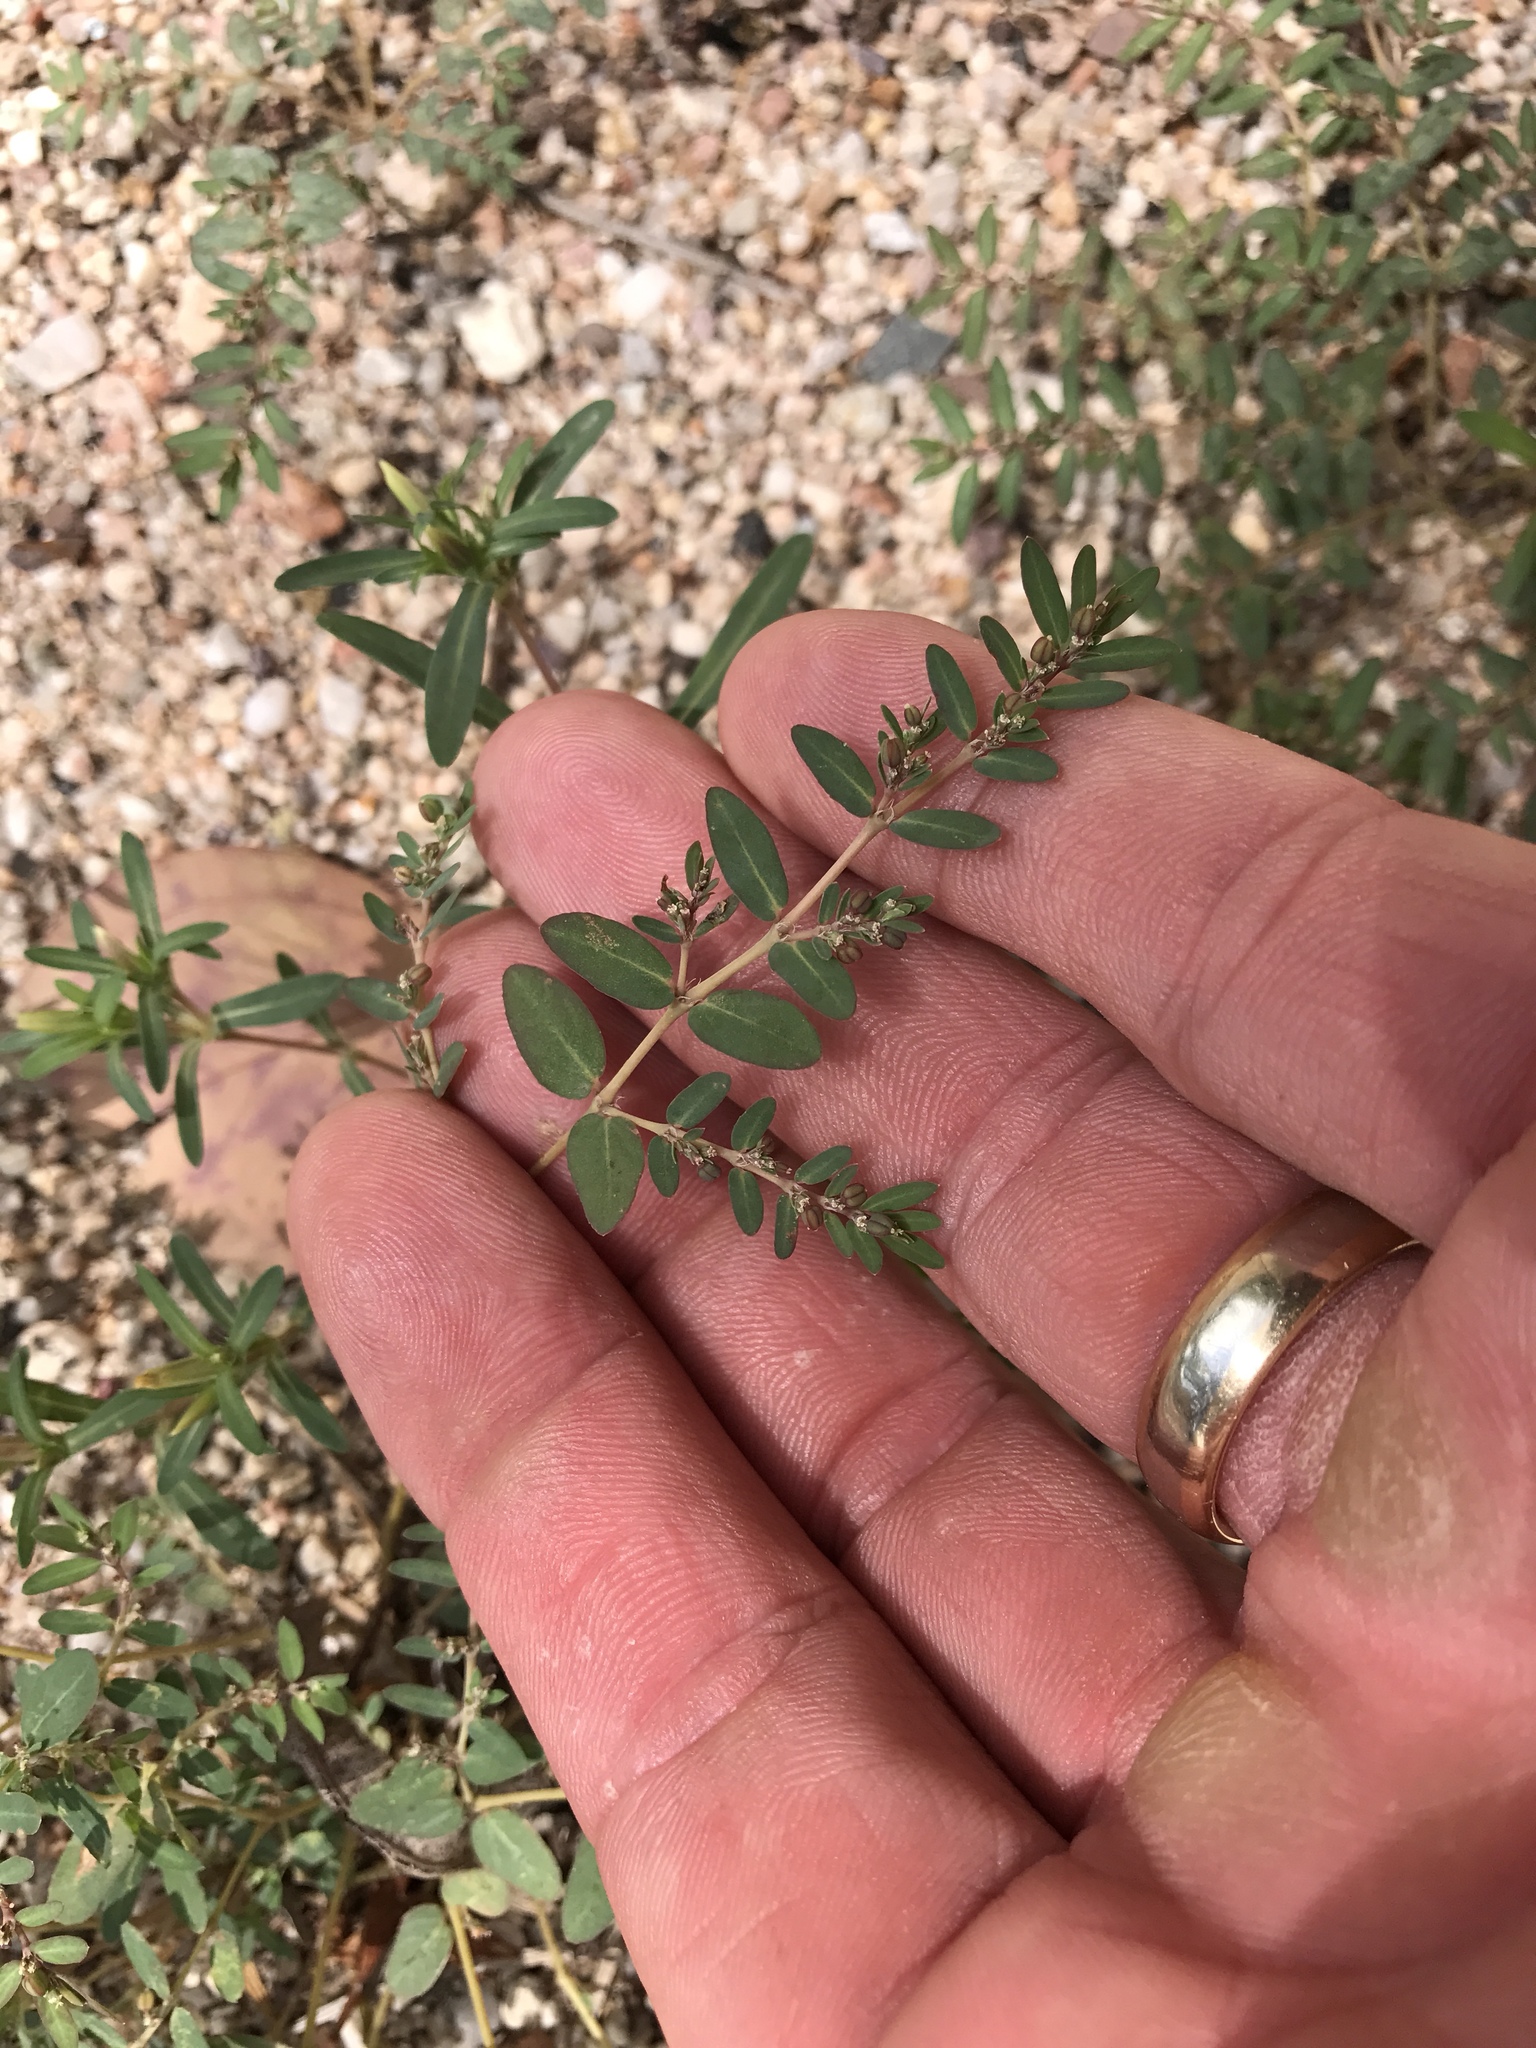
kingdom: Plantae
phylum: Tracheophyta
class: Magnoliopsida
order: Malpighiales
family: Euphorbiaceae
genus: Euphorbia
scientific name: Euphorbia abramsiana
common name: Abram's spurge
